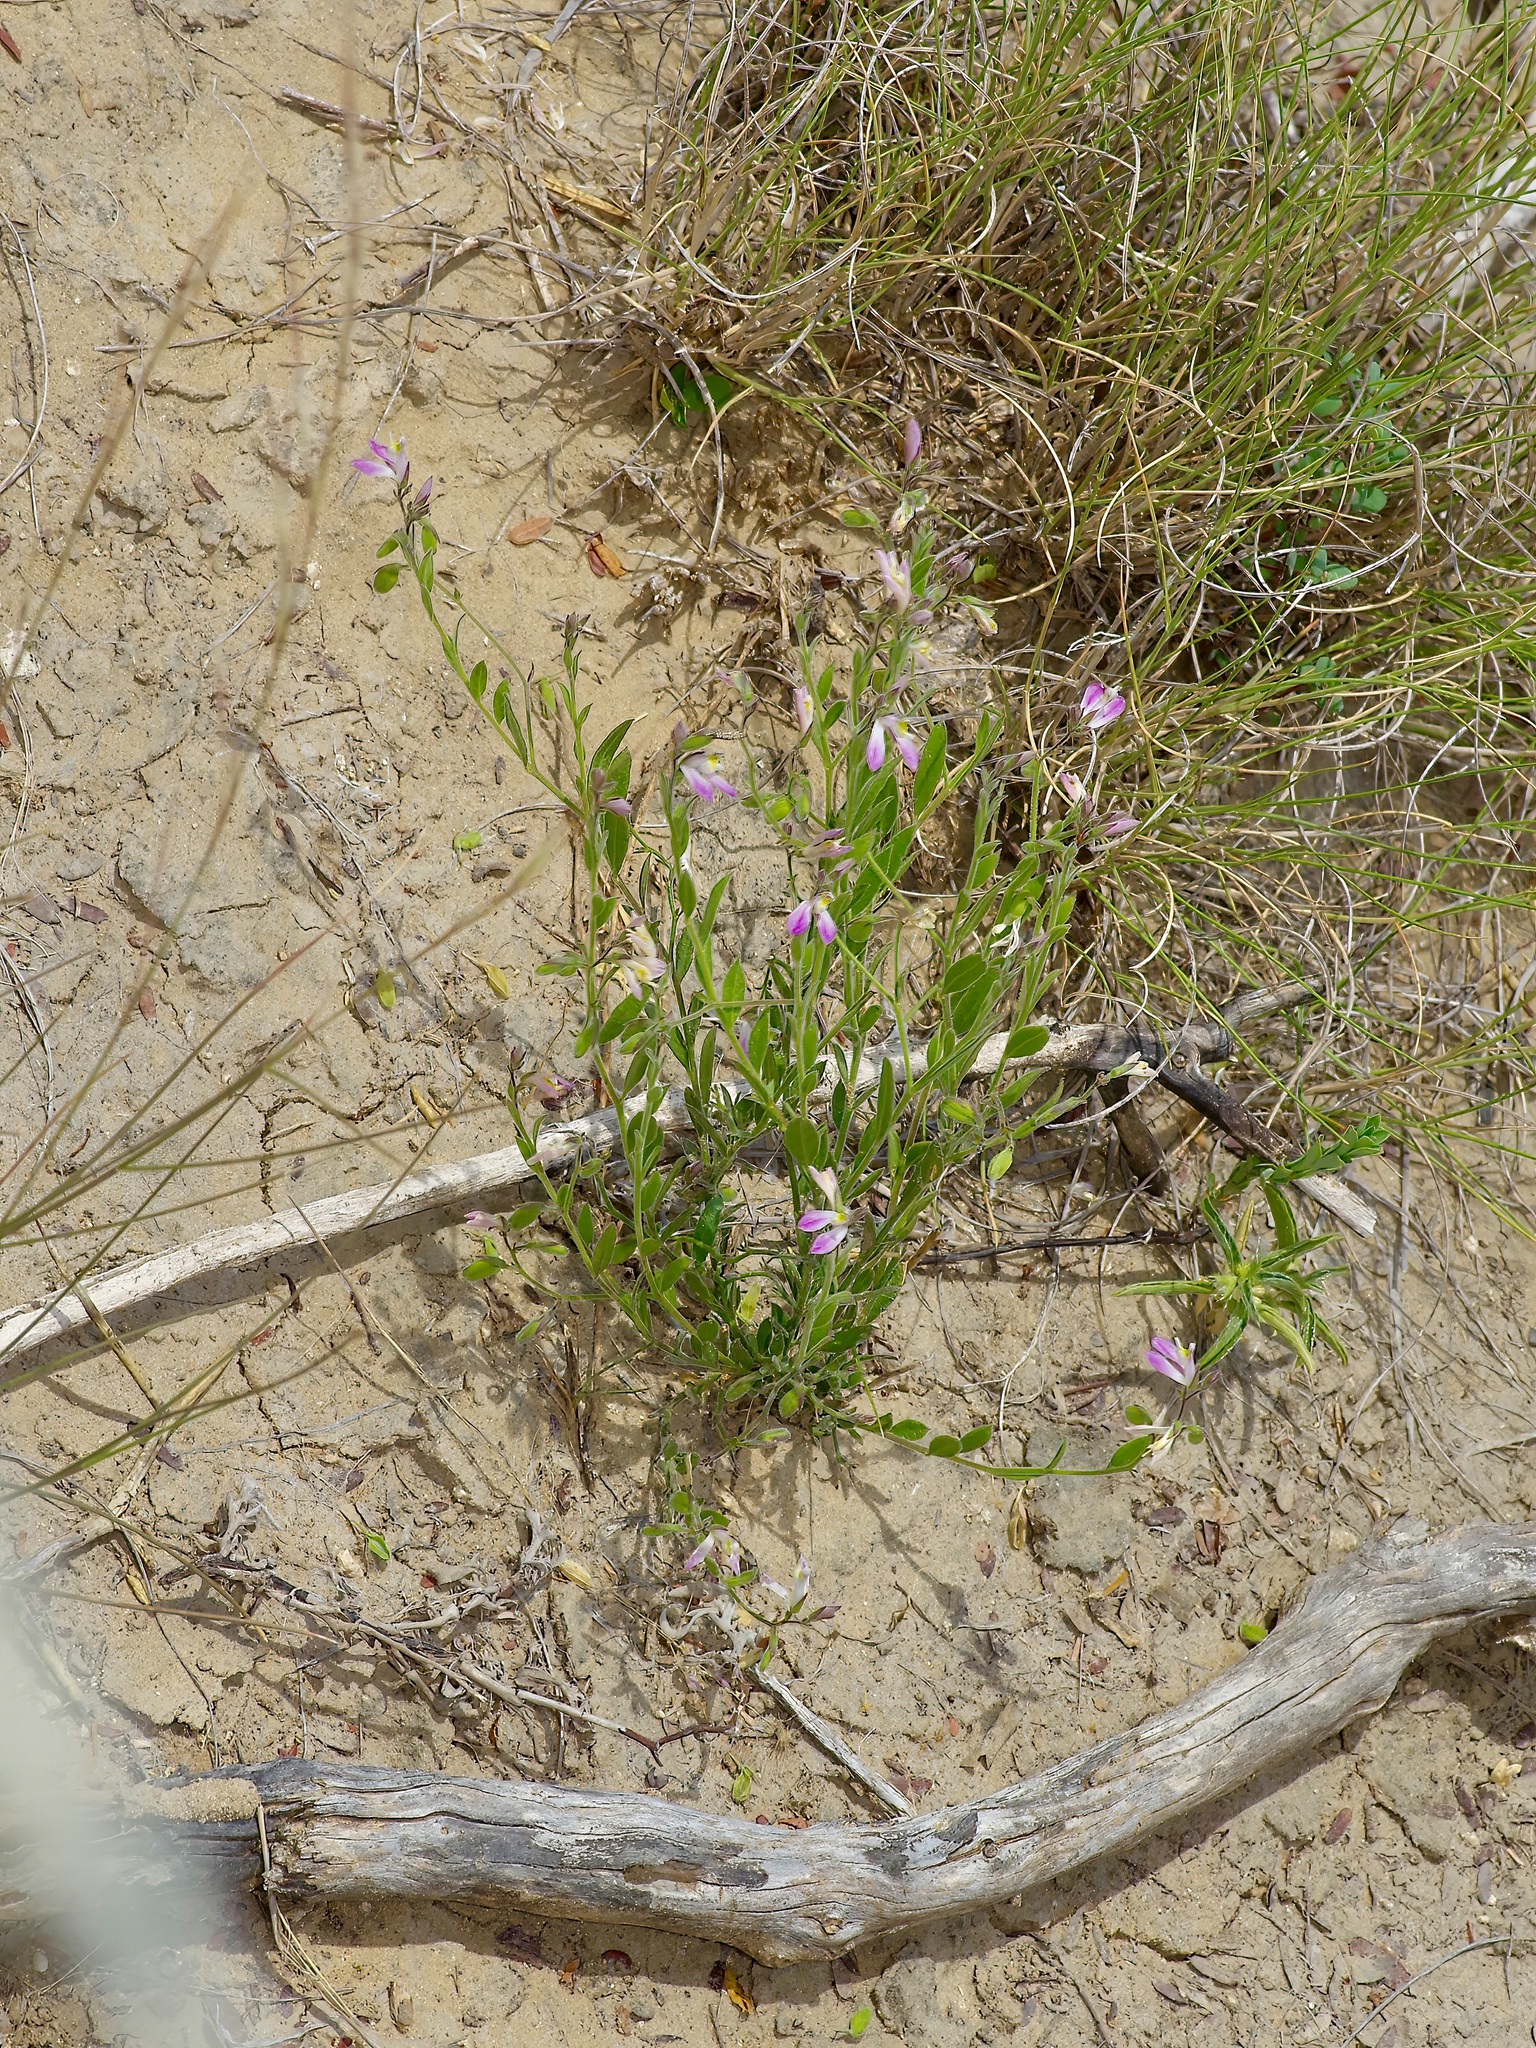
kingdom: Plantae
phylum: Tracheophyta
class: Magnoliopsida
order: Fabales
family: Polygalaceae
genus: Rhinotropis
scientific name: Rhinotropis lindheimeri
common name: Shrubby milkwort
